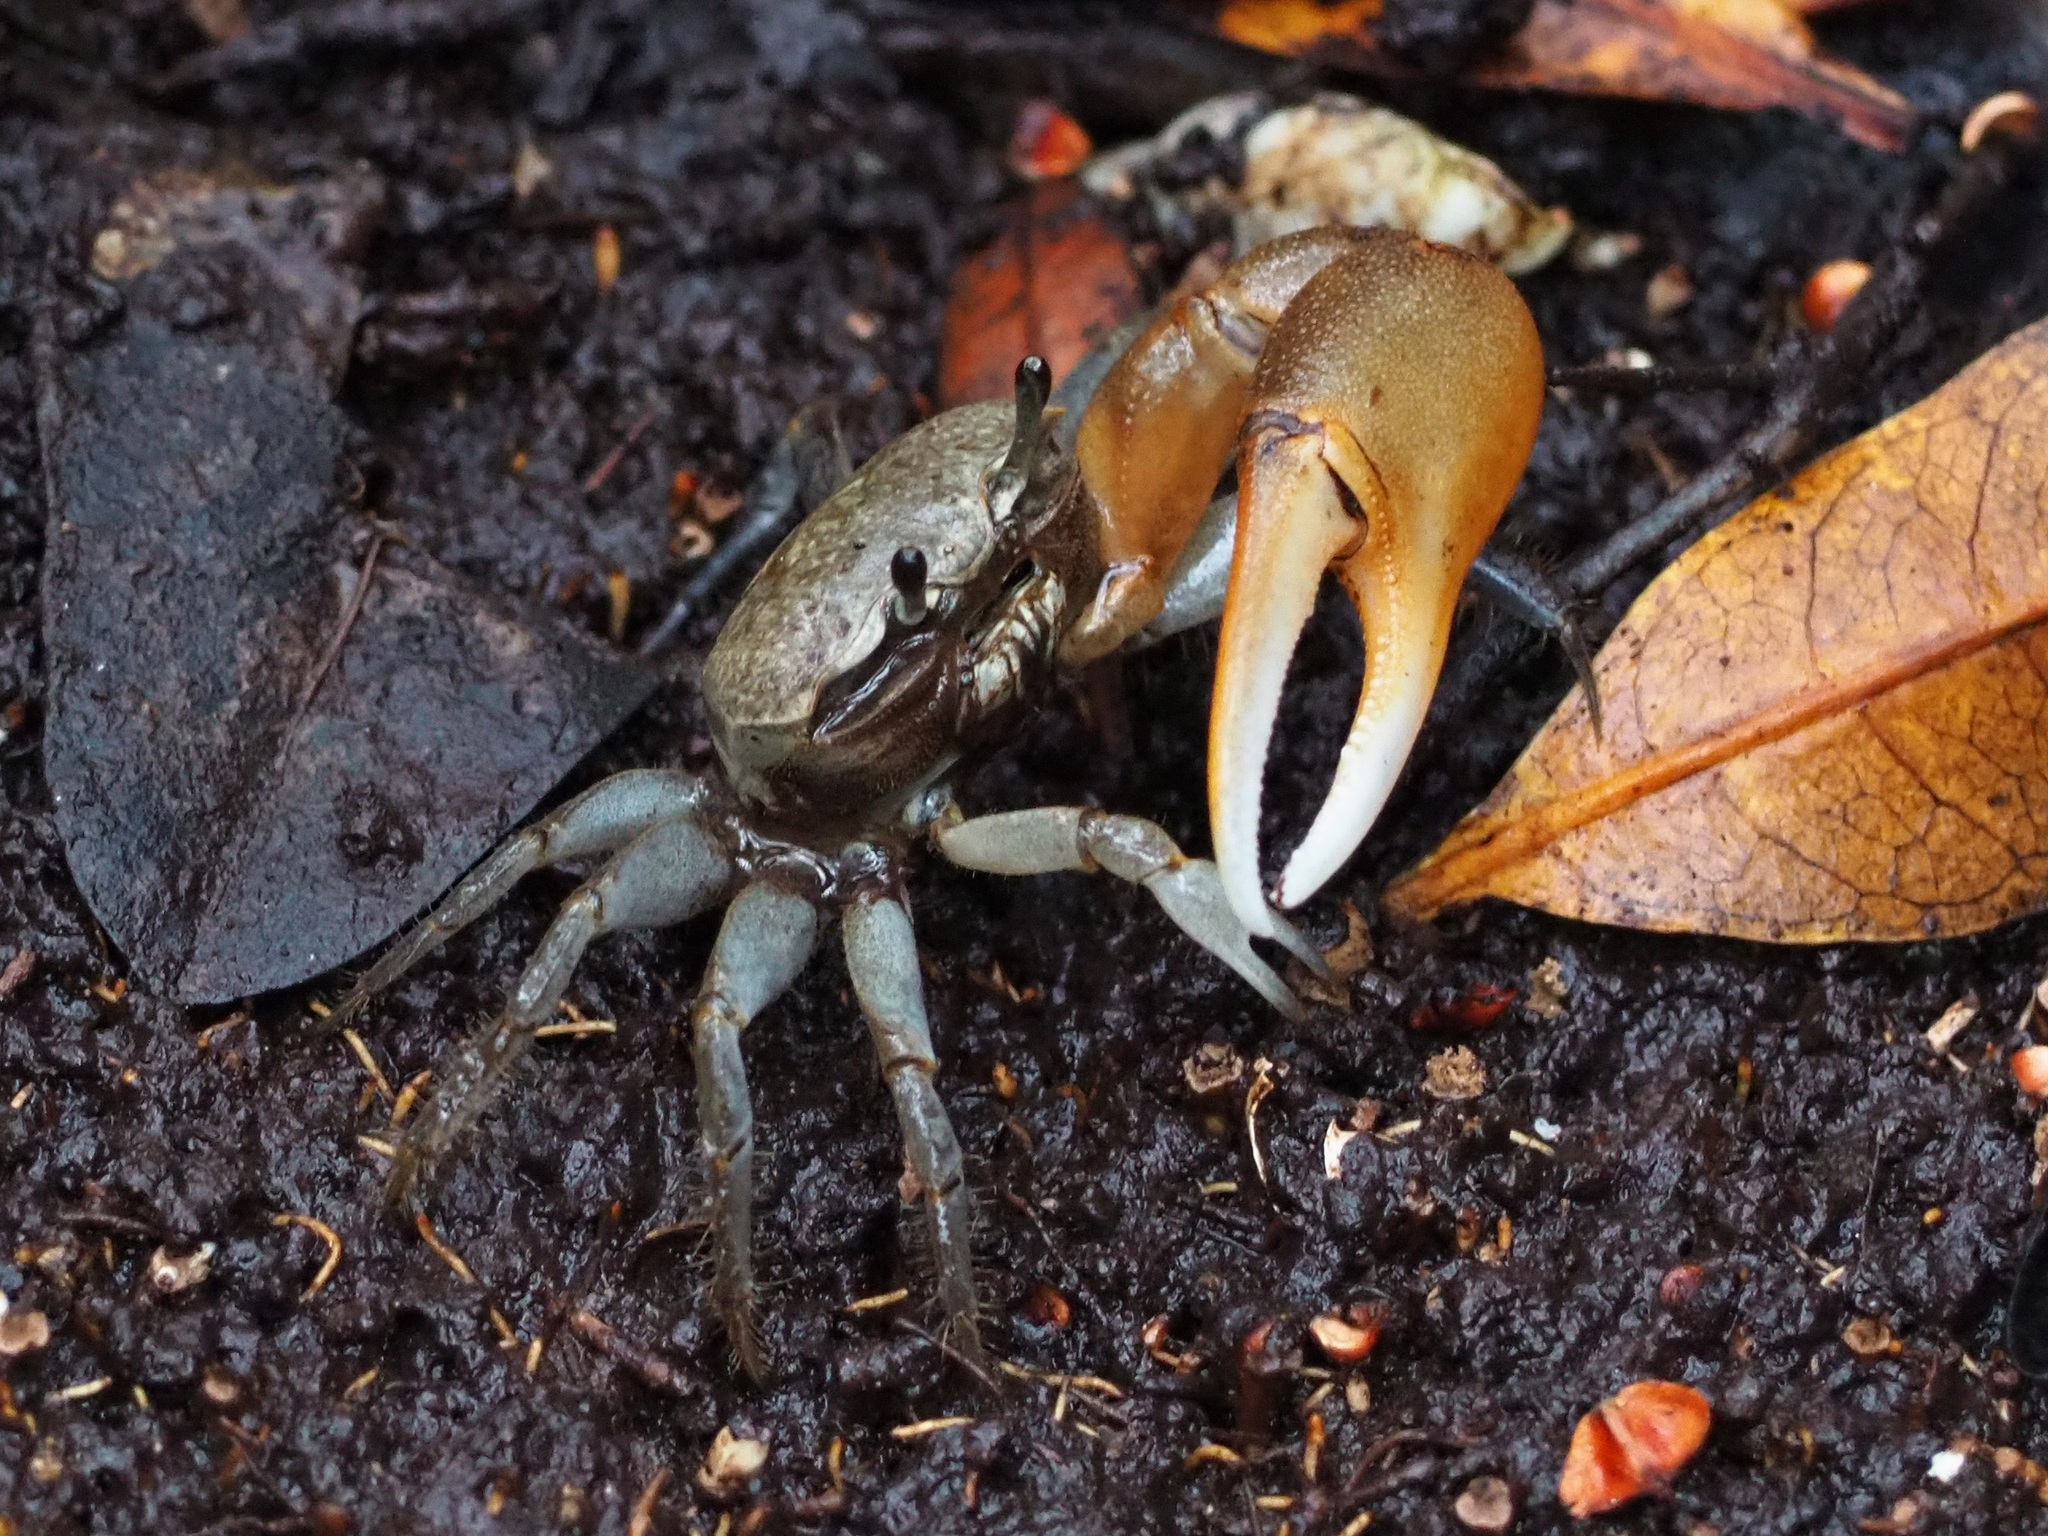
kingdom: Animalia
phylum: Arthropoda
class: Malacostraca
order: Decapoda
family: Ocypodidae
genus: Minuca
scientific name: Minuca galapagensis
